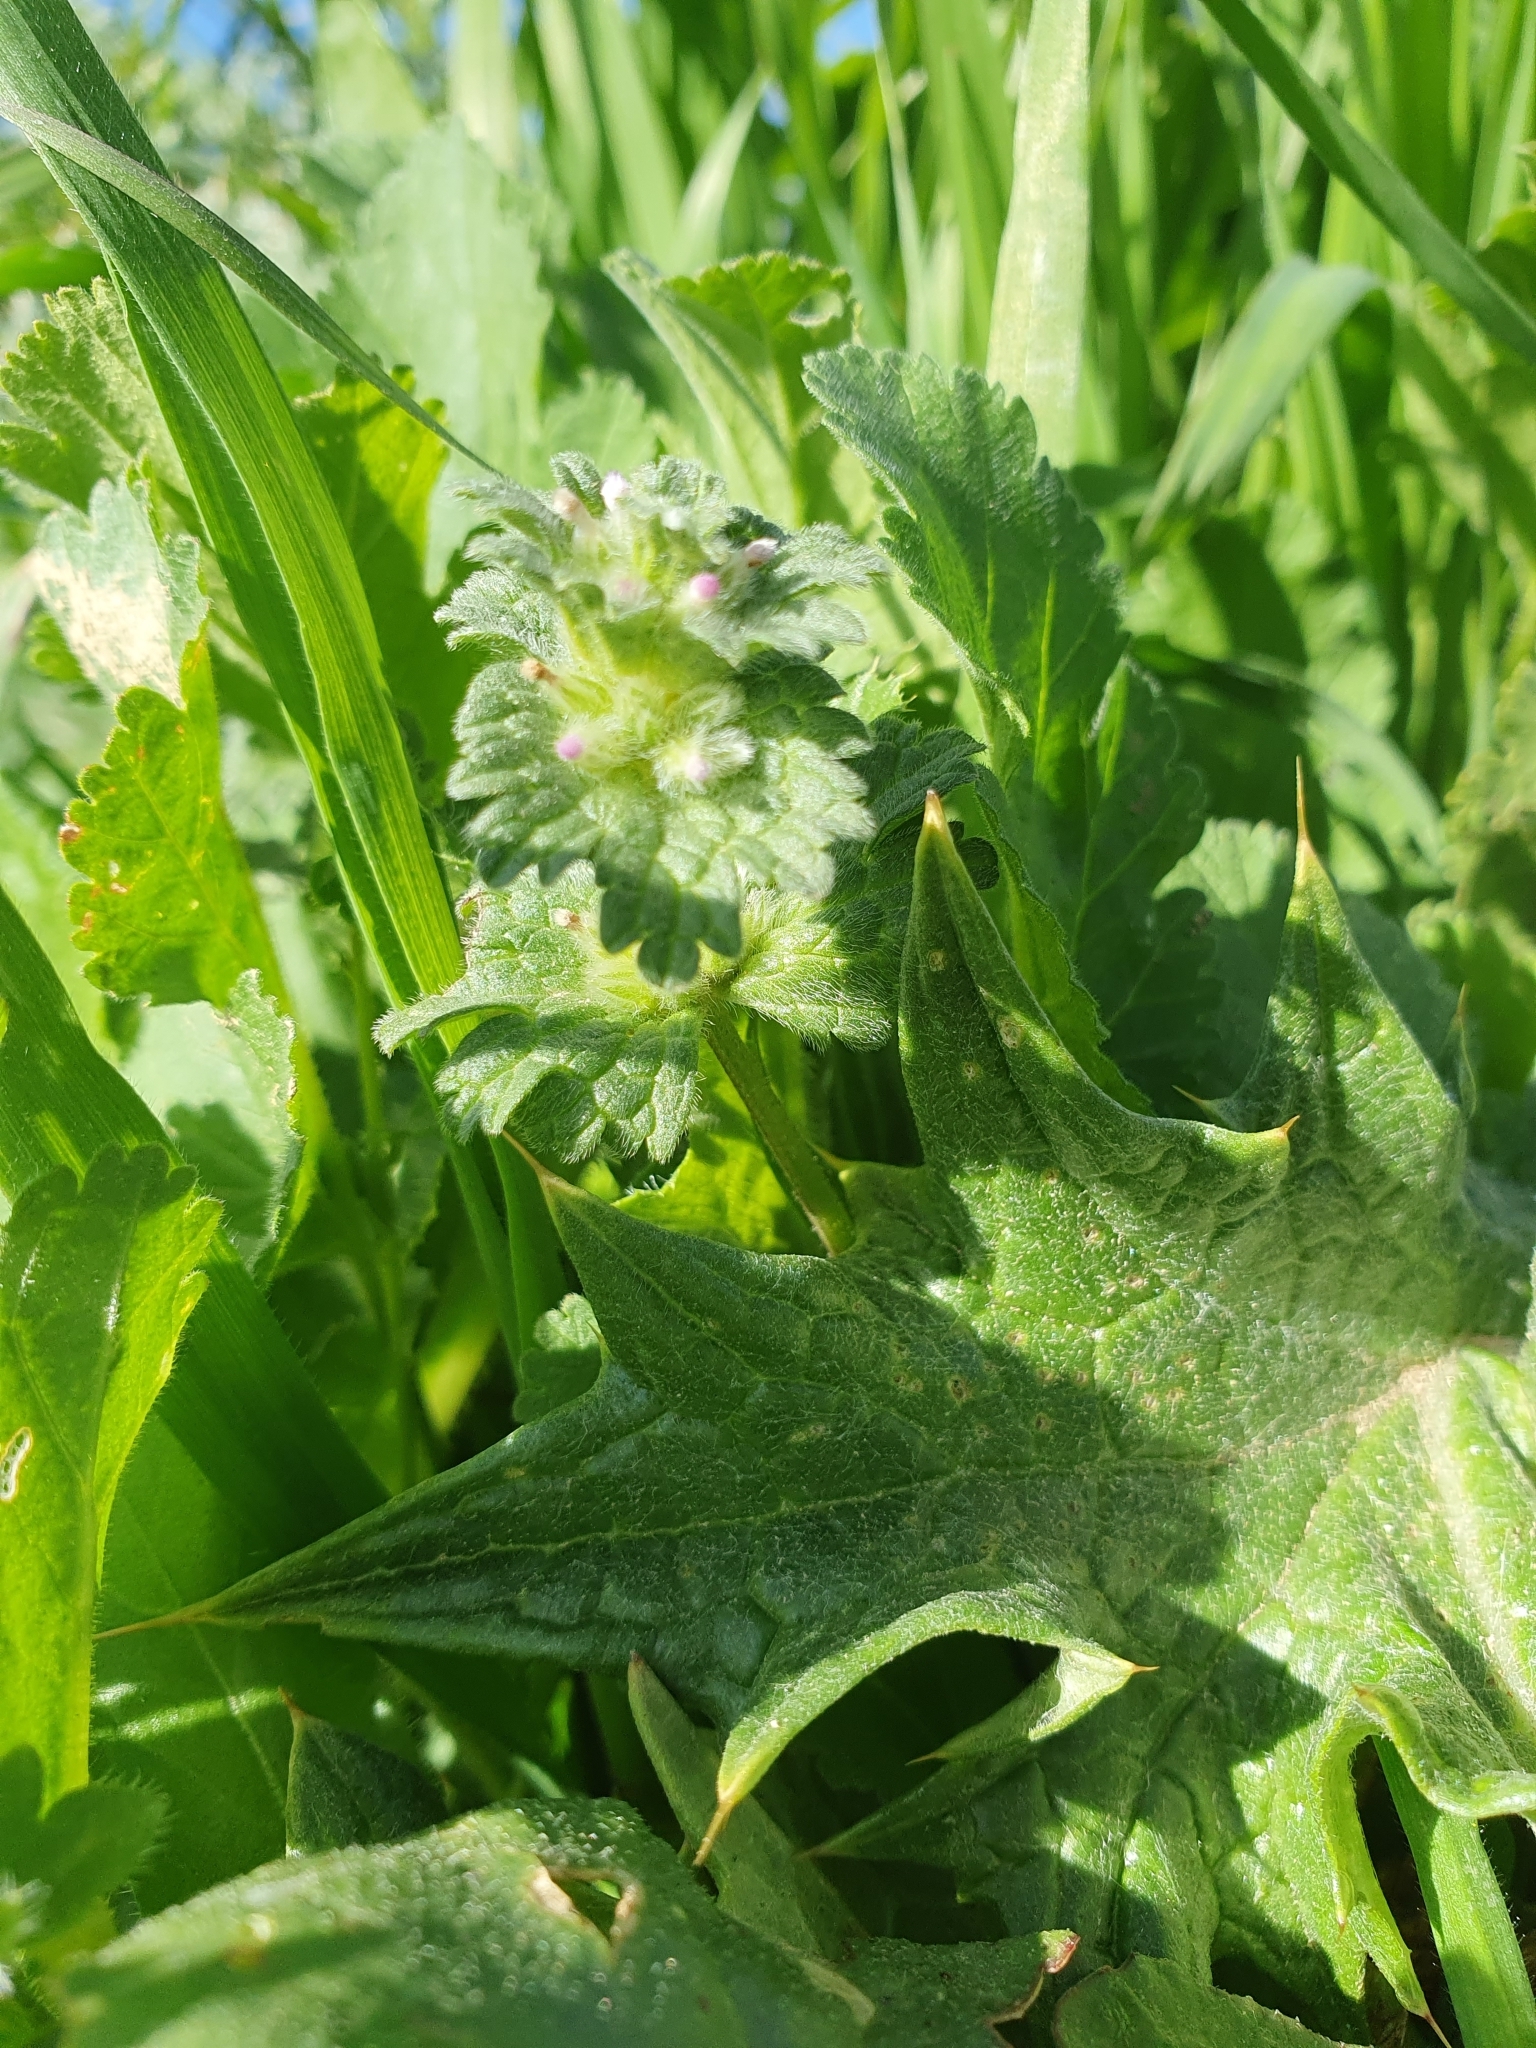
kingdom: Plantae
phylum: Tracheophyta
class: Magnoliopsida
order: Lamiales
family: Lamiaceae
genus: Lamium
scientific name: Lamium amplexicaule
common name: Henbit dead-nettle
